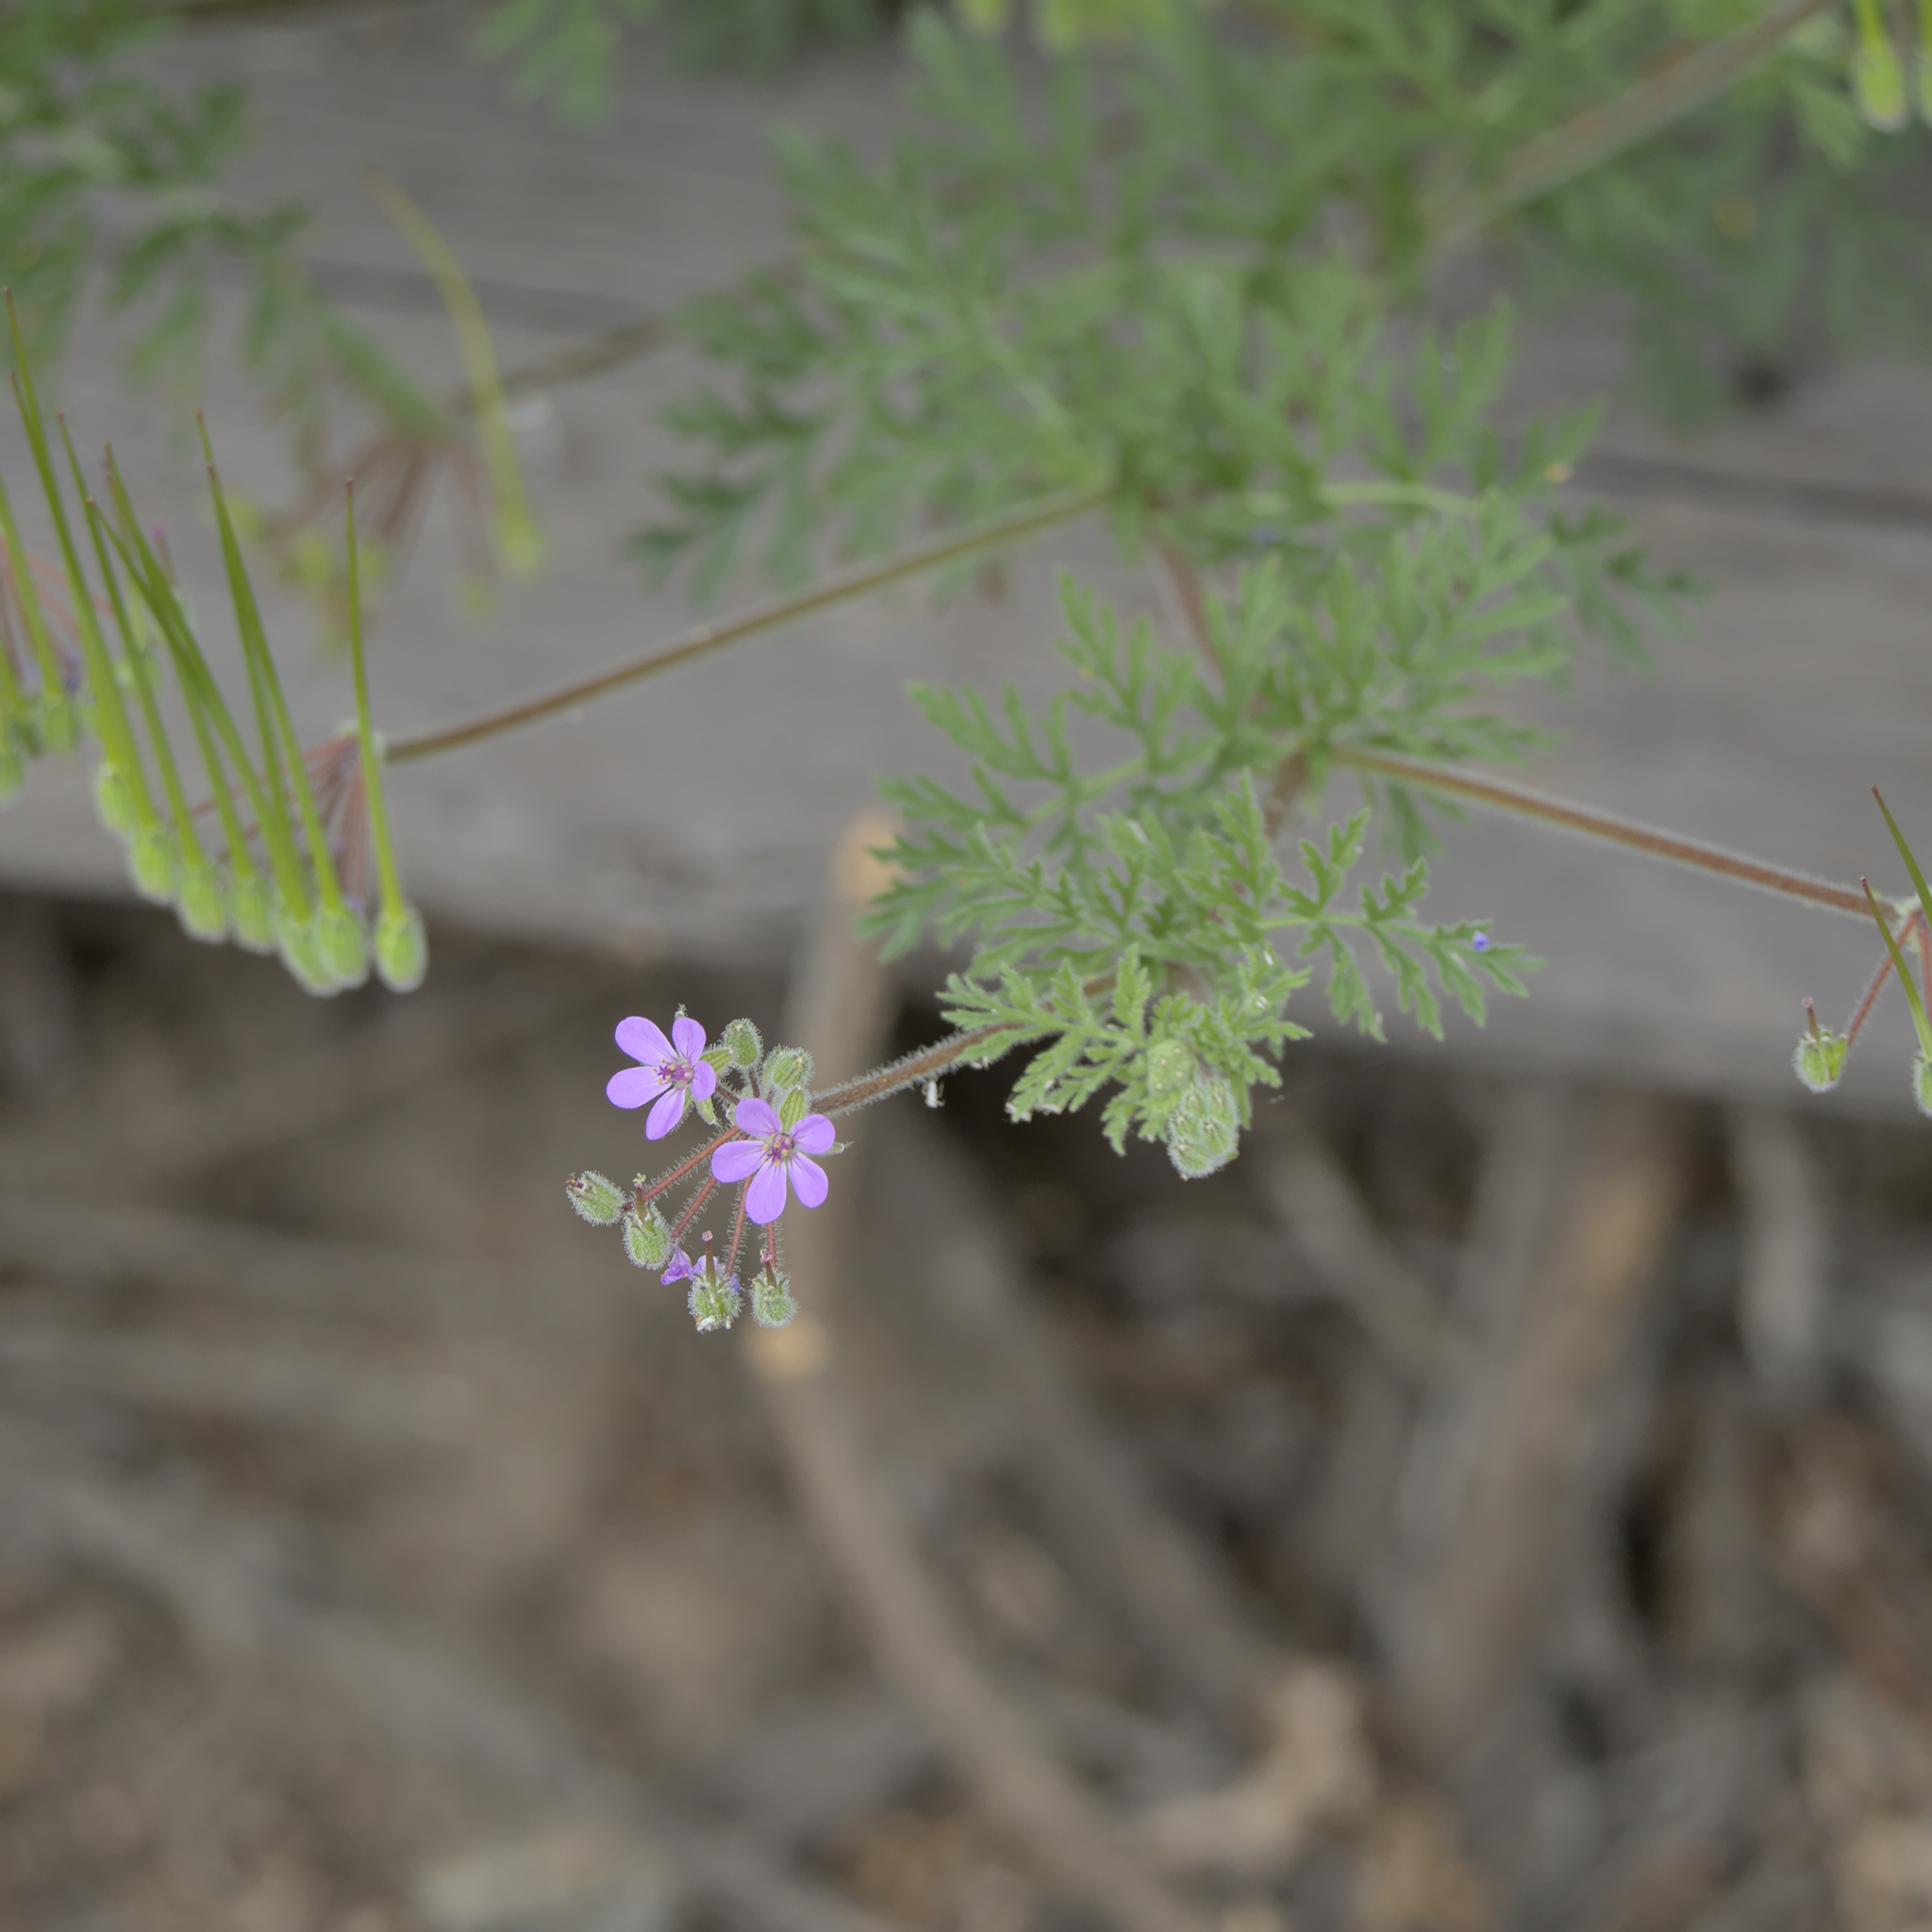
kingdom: Plantae
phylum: Tracheophyta
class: Magnoliopsida
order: Geraniales
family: Geraniaceae
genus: Erodium
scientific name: Erodium cicutarium
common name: Common stork's-bill
